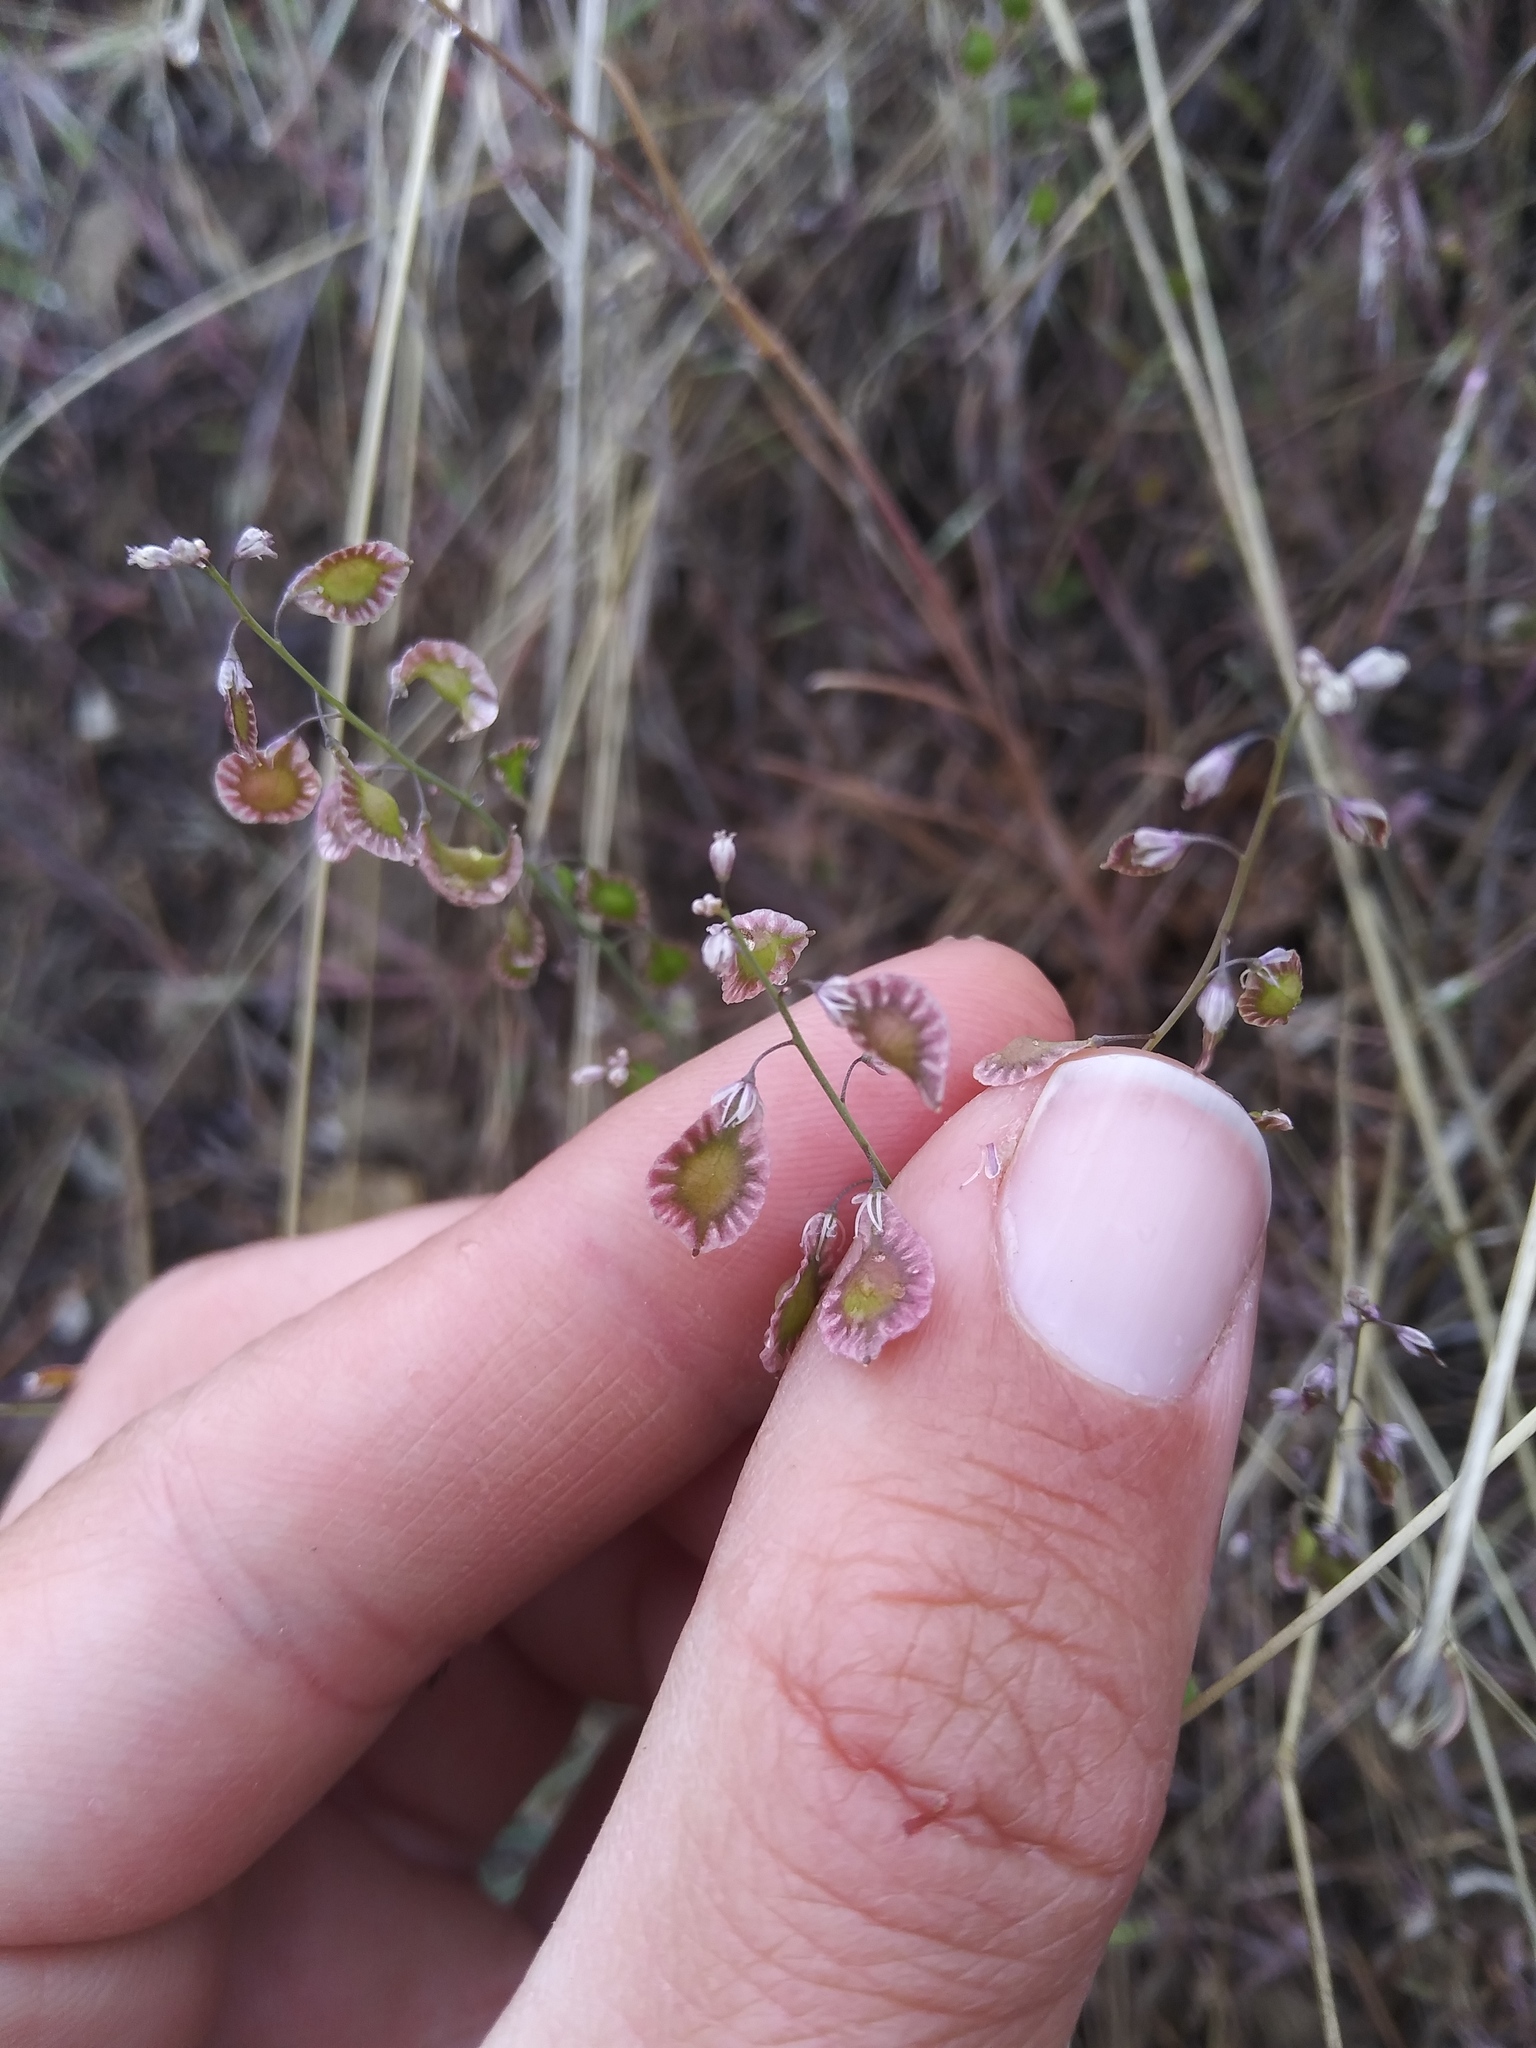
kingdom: Plantae
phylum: Tracheophyta
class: Magnoliopsida
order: Brassicales
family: Brassicaceae
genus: Thysanocarpus
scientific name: Thysanocarpus curvipes
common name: Sand fringepod
